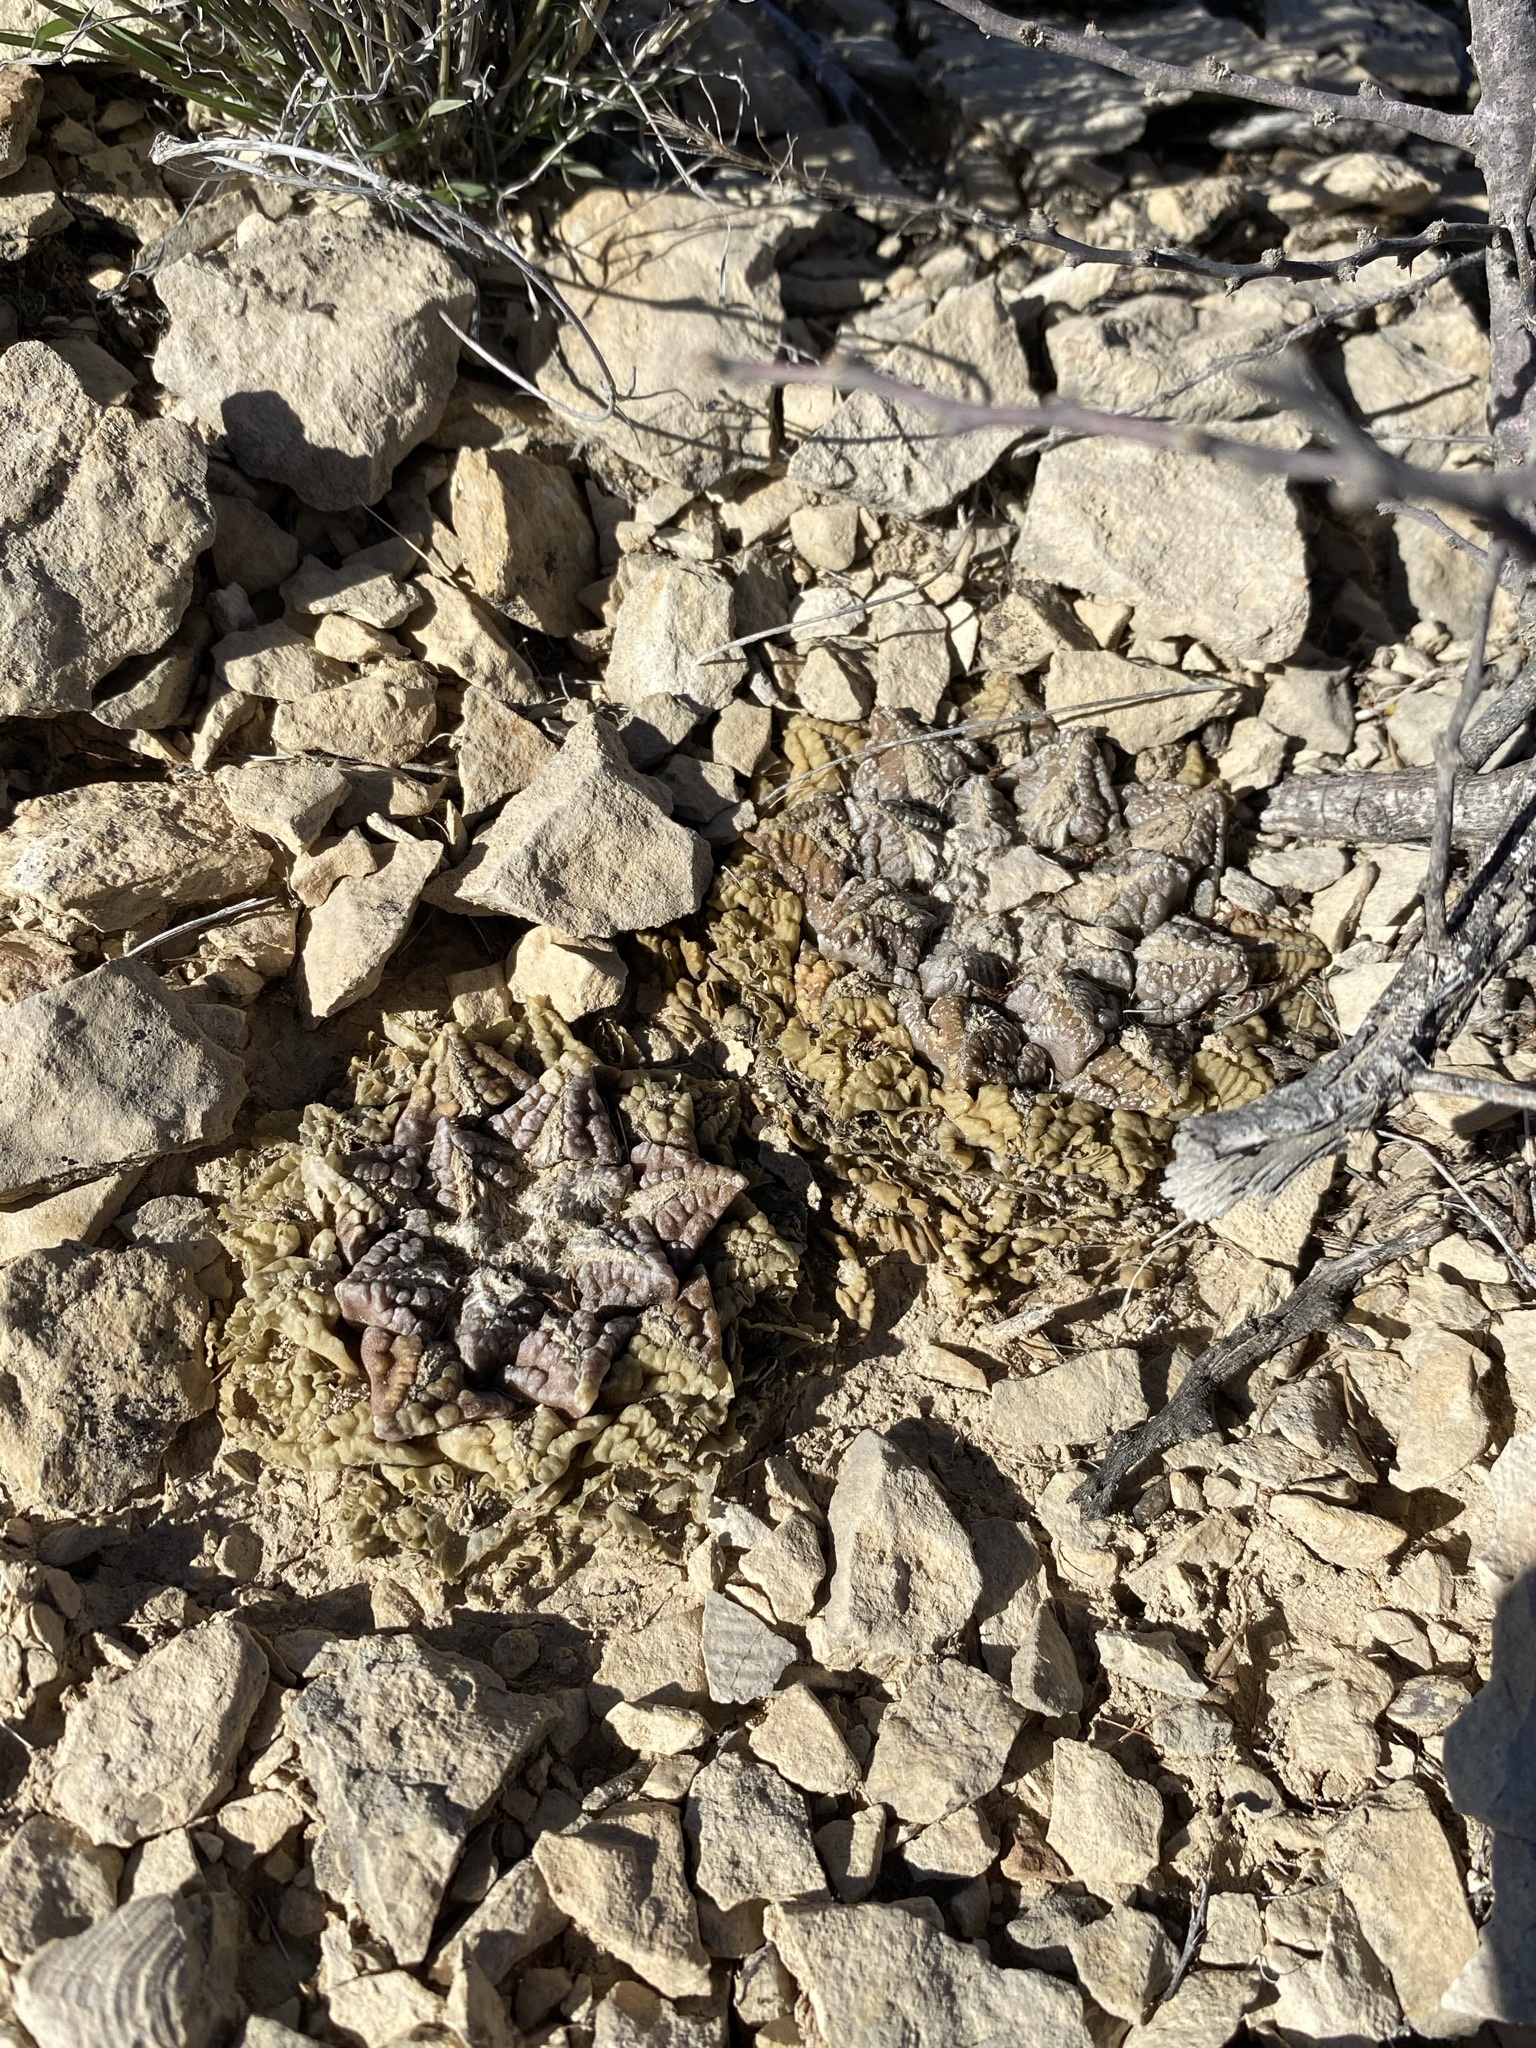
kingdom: Plantae
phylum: Tracheophyta
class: Magnoliopsida
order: Caryophyllales
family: Cactaceae
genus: Ariocarpus
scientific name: Ariocarpus fissuratus
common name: Chautle-living rock
